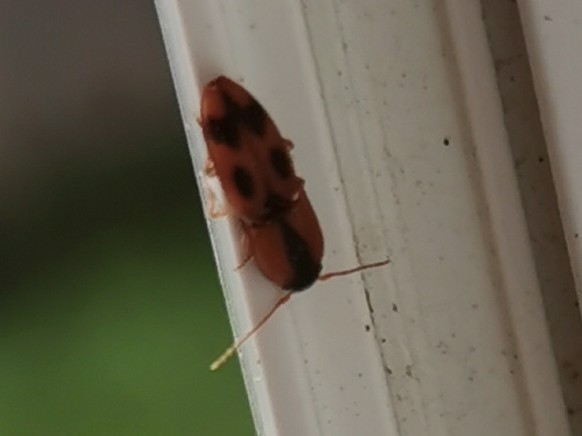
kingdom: Animalia
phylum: Arthropoda
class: Insecta
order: Coleoptera
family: Elateridae
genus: Aeolus
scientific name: Aeolus mellillus
